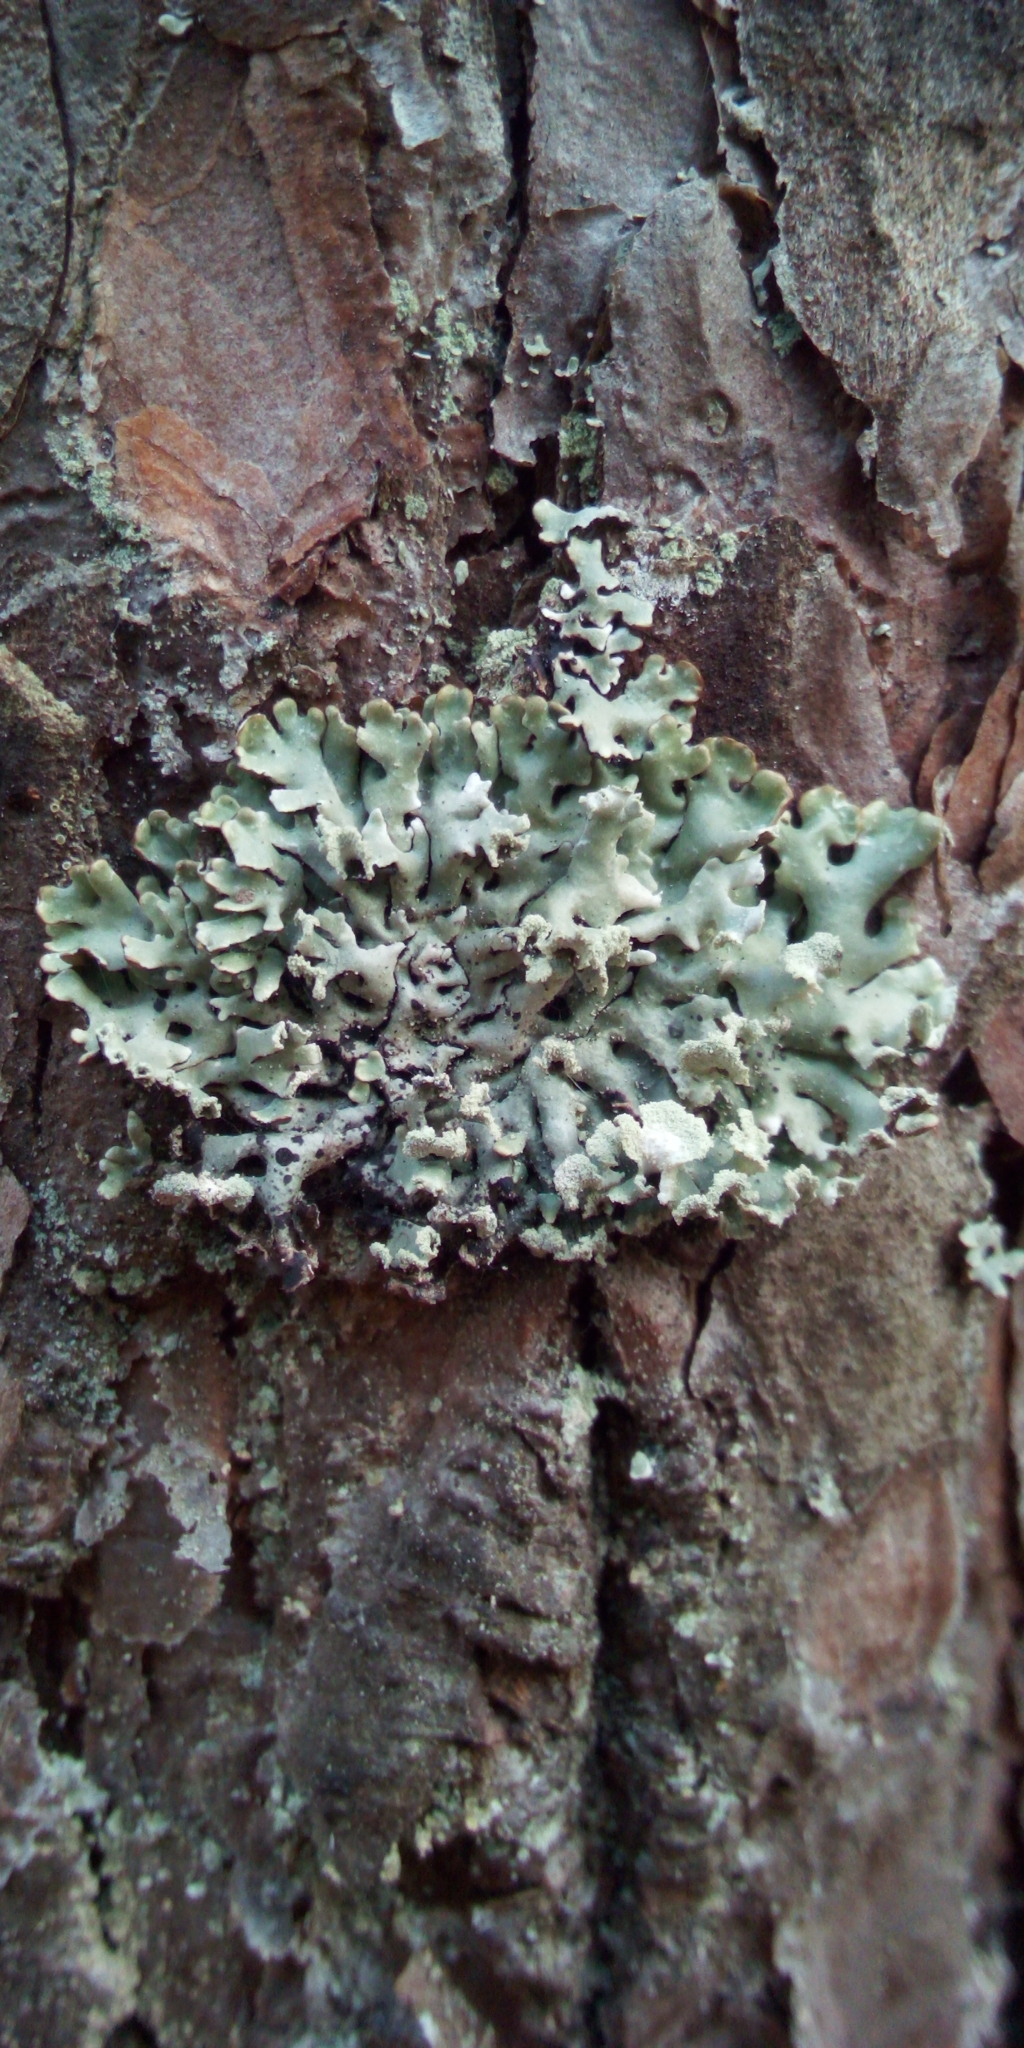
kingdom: Fungi
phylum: Ascomycota
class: Lecanoromycetes
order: Lecanorales
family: Parmeliaceae
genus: Hypogymnia
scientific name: Hypogymnia physodes
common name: Dark crottle
